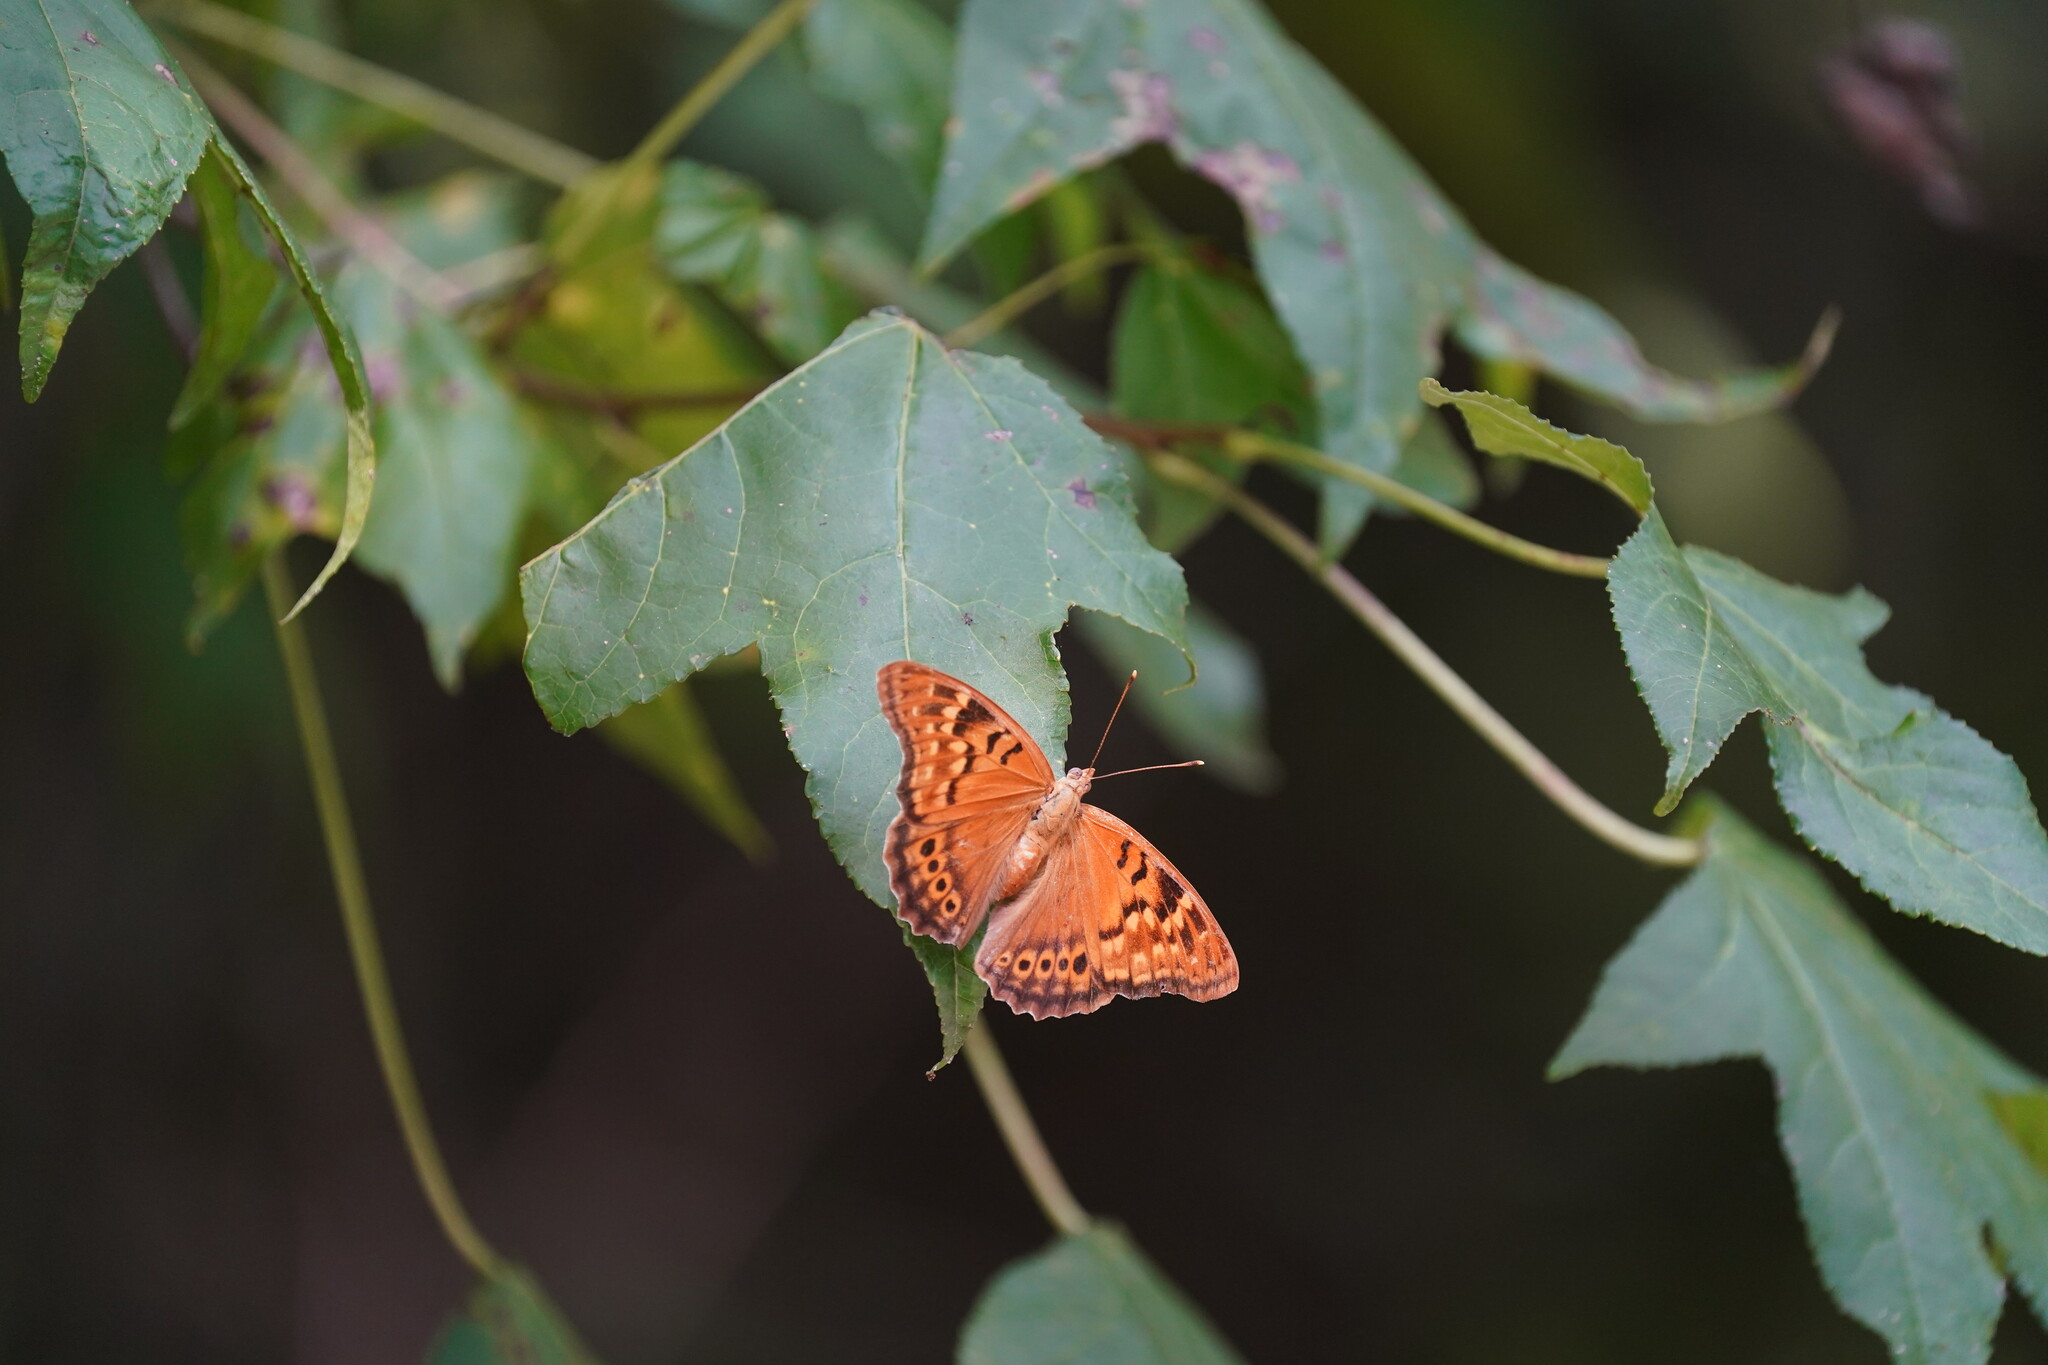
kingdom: Animalia
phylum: Arthropoda
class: Insecta
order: Lepidoptera
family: Nymphalidae
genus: Asterocampa
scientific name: Asterocampa clyton
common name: Tawny emperor
